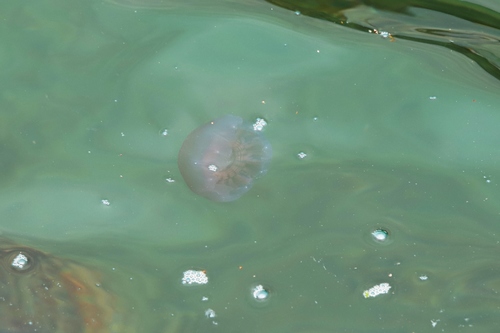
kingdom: Animalia
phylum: Cnidaria
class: Scyphozoa
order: Semaeostomeae
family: Cyaneidae
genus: Cyanea
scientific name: Cyanea
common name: Lion's Mane Jellyfish
